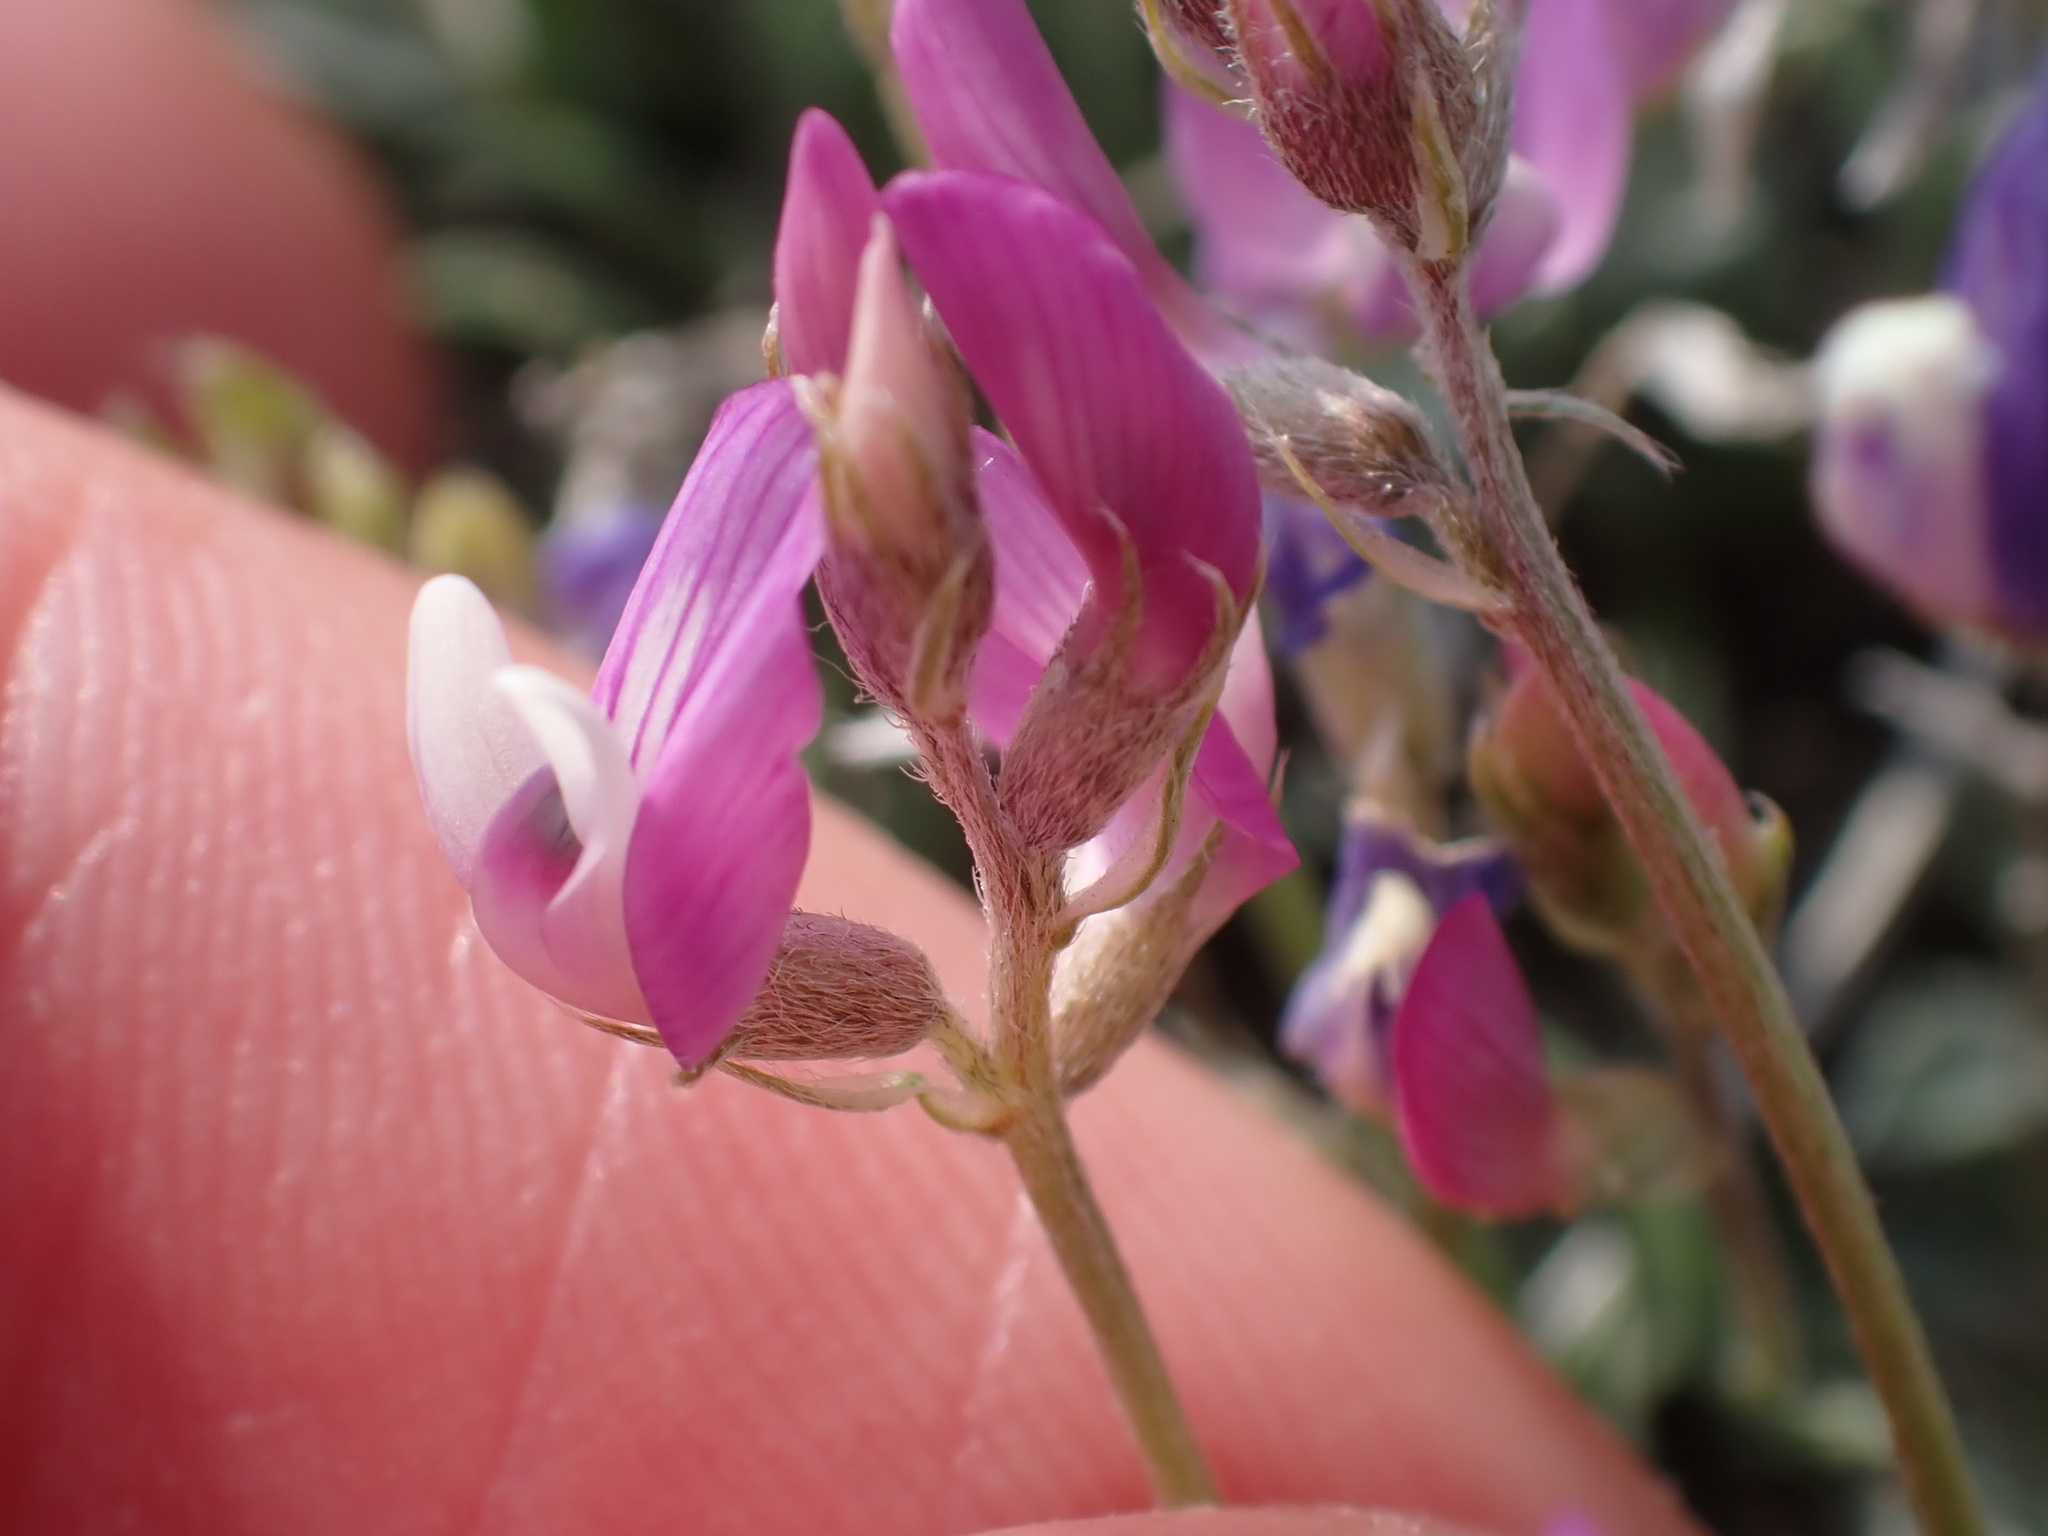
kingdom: Plantae
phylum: Tracheophyta
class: Magnoliopsida
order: Fabales
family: Fabaceae
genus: Astragalus
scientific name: Astragalus spatulatus
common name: Draba milk-vetch
